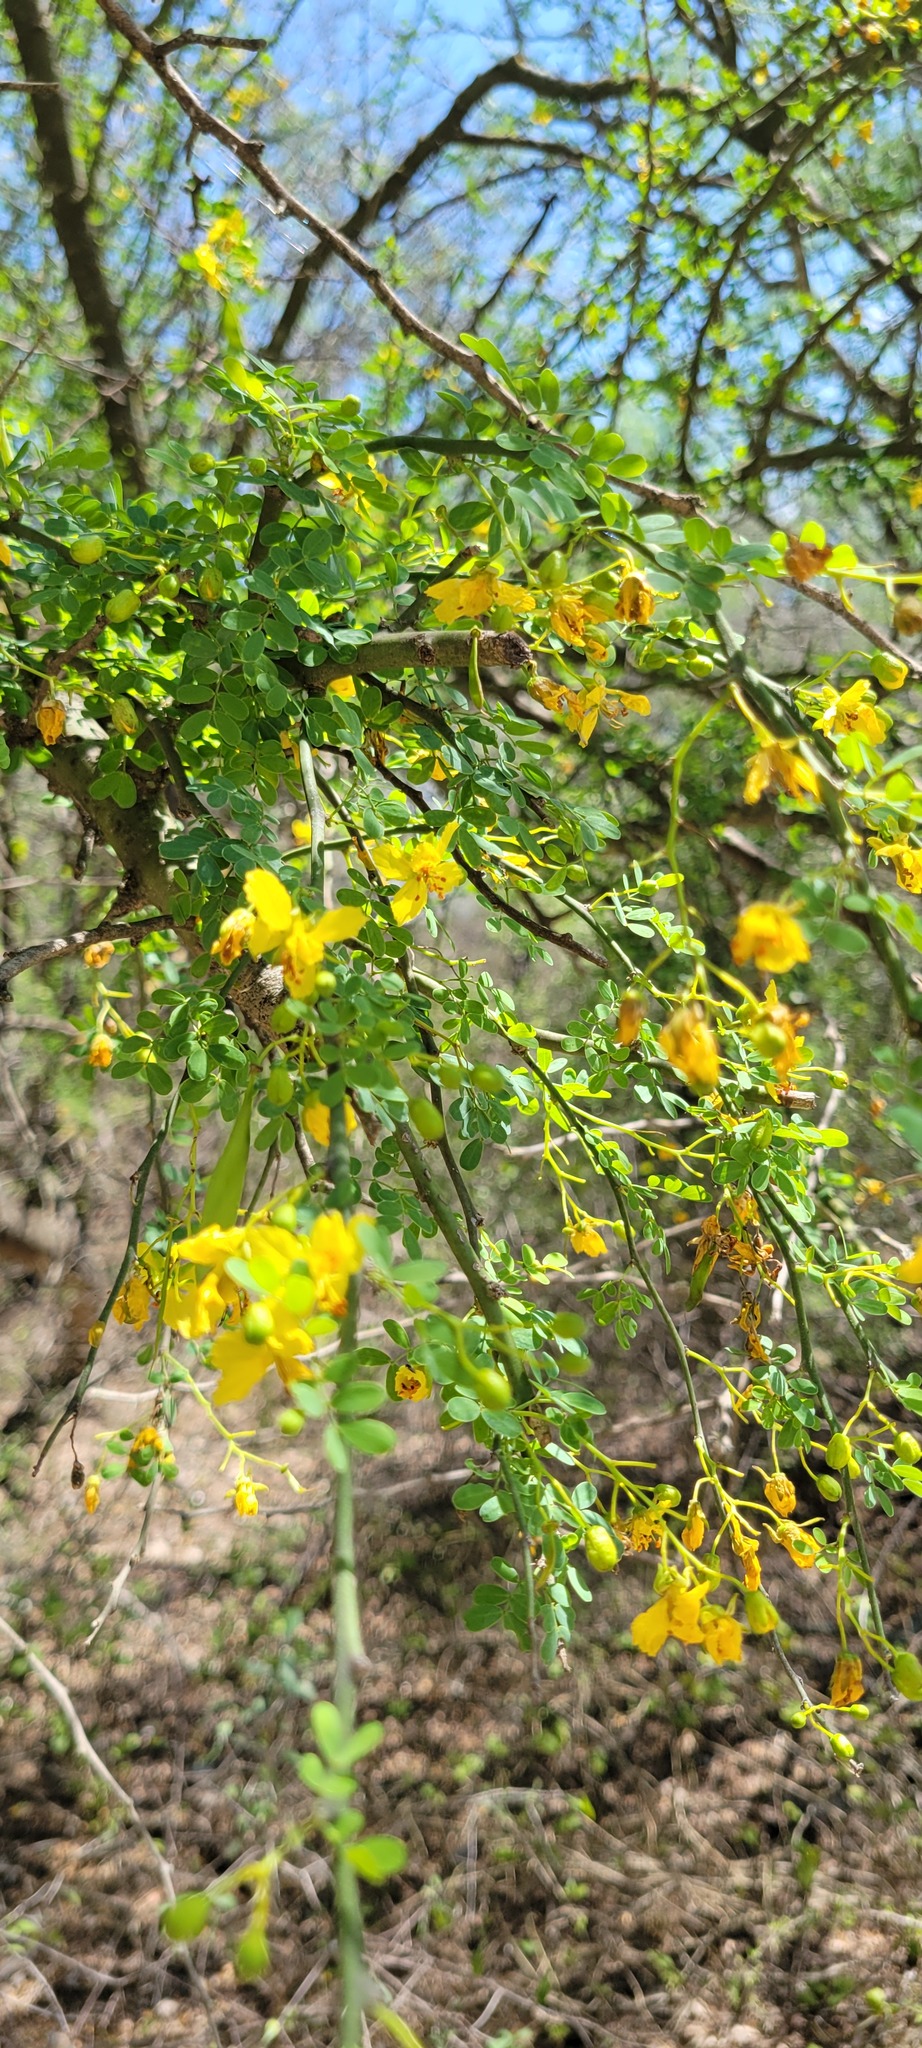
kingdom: Plantae
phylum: Tracheophyta
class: Magnoliopsida
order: Fabales
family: Fabaceae
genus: Parkinsonia
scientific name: Parkinsonia texana
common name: Texas paloverde
